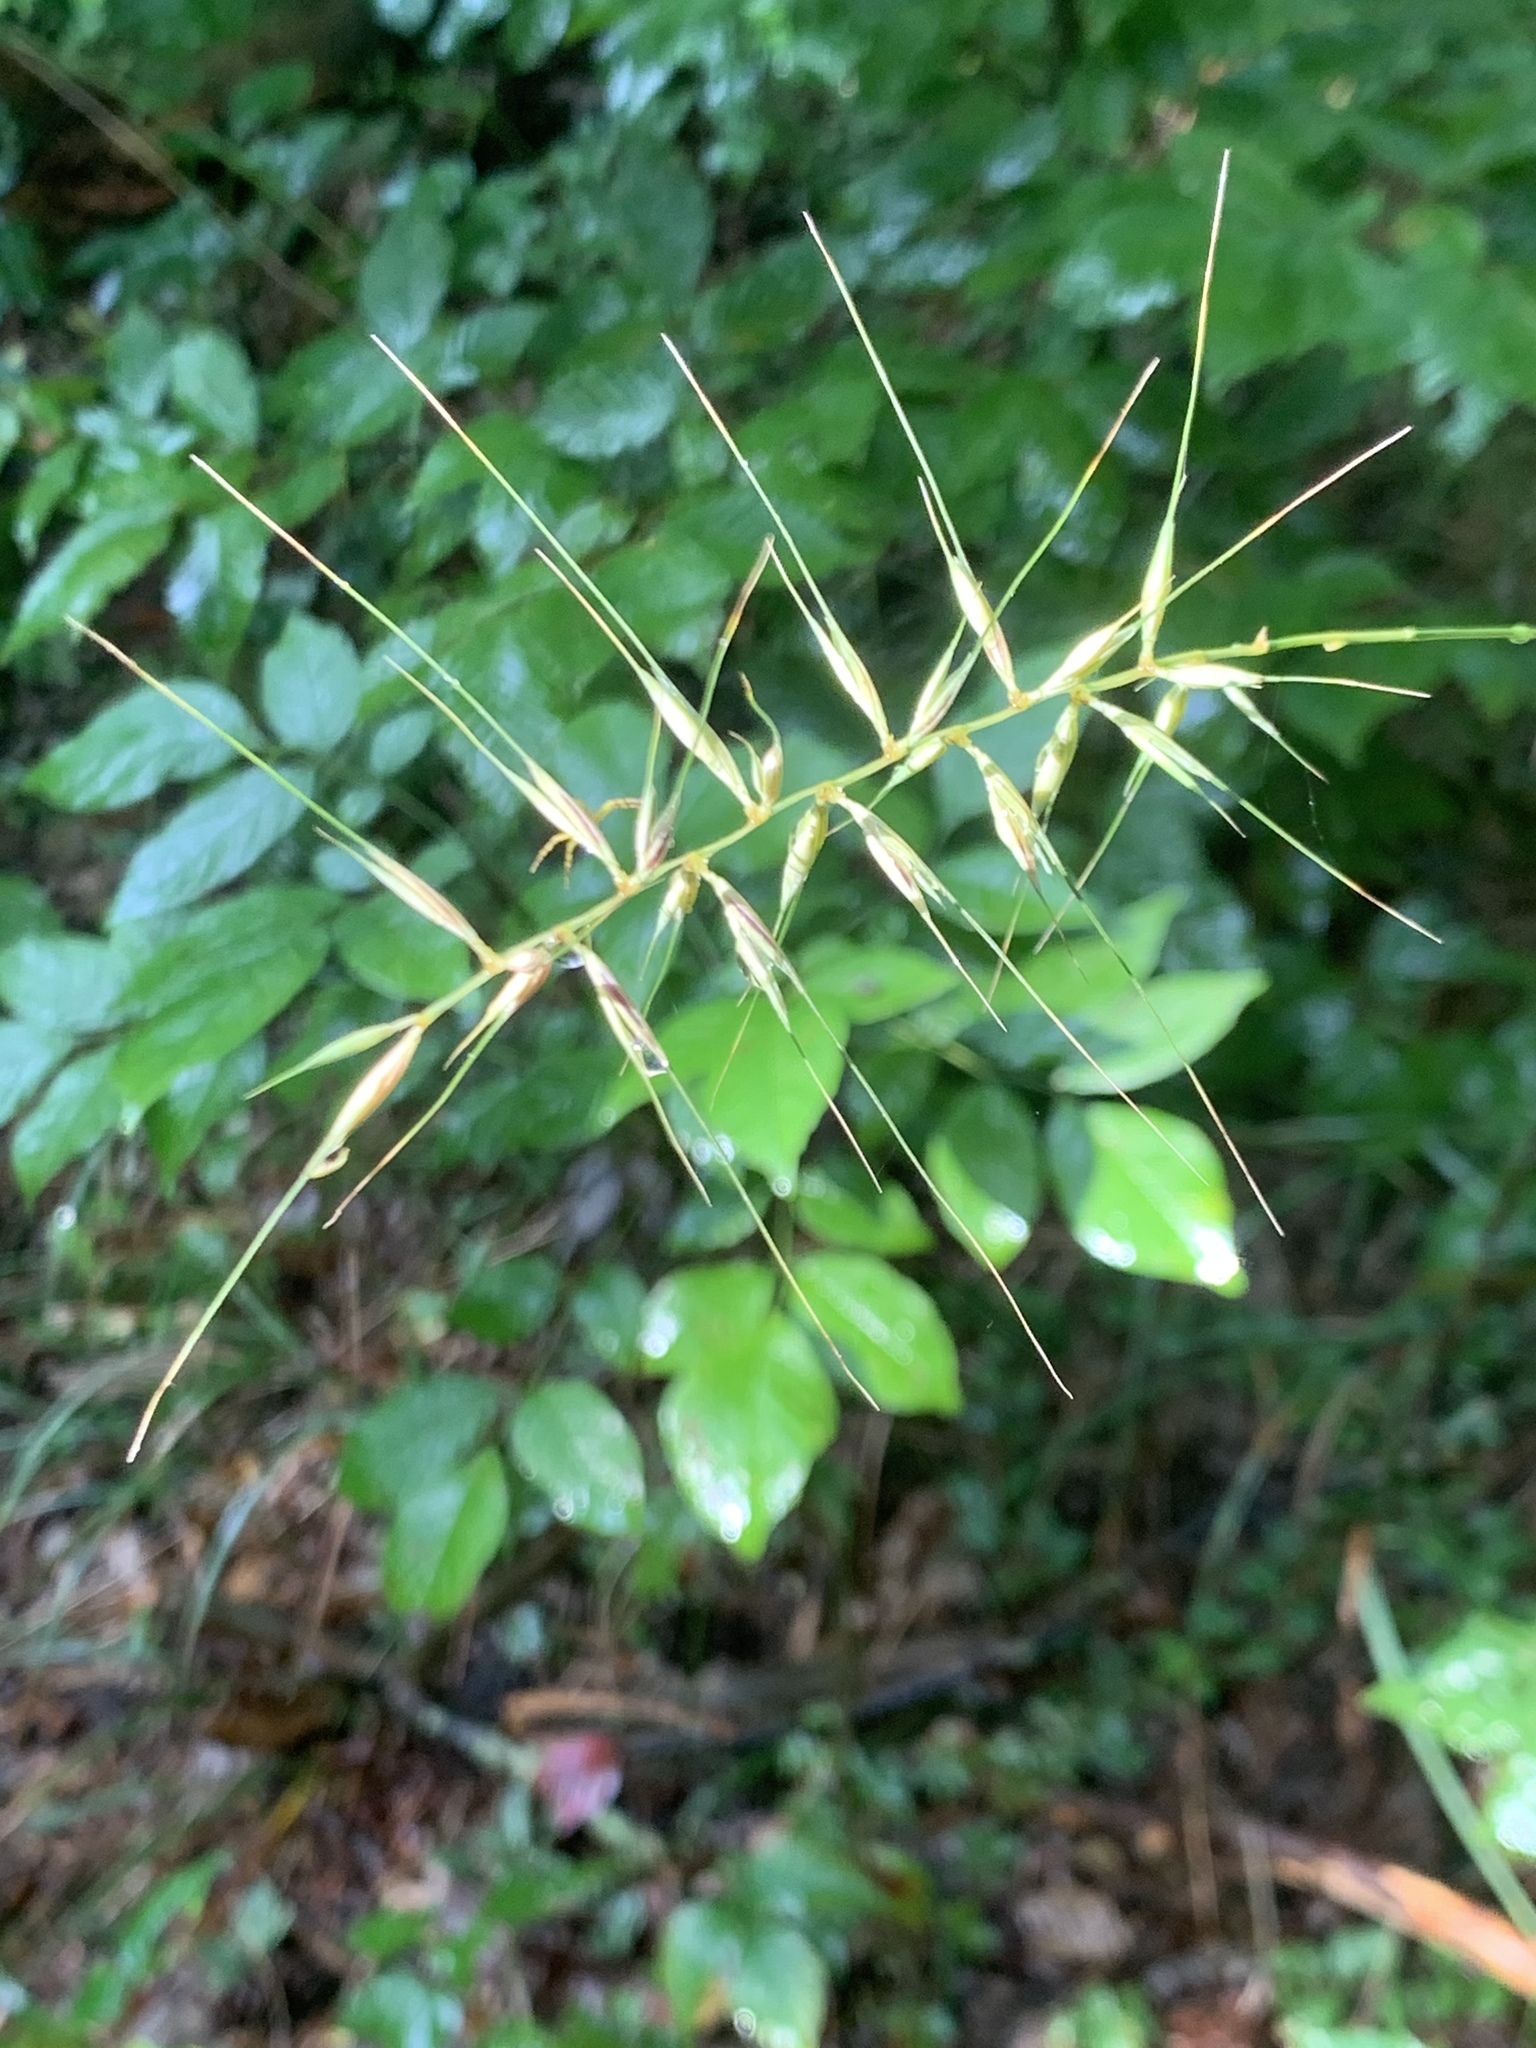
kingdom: Plantae
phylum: Tracheophyta
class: Liliopsida
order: Poales
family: Poaceae
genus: Elymus
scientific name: Elymus hystrix
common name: Bottlebrush grass
